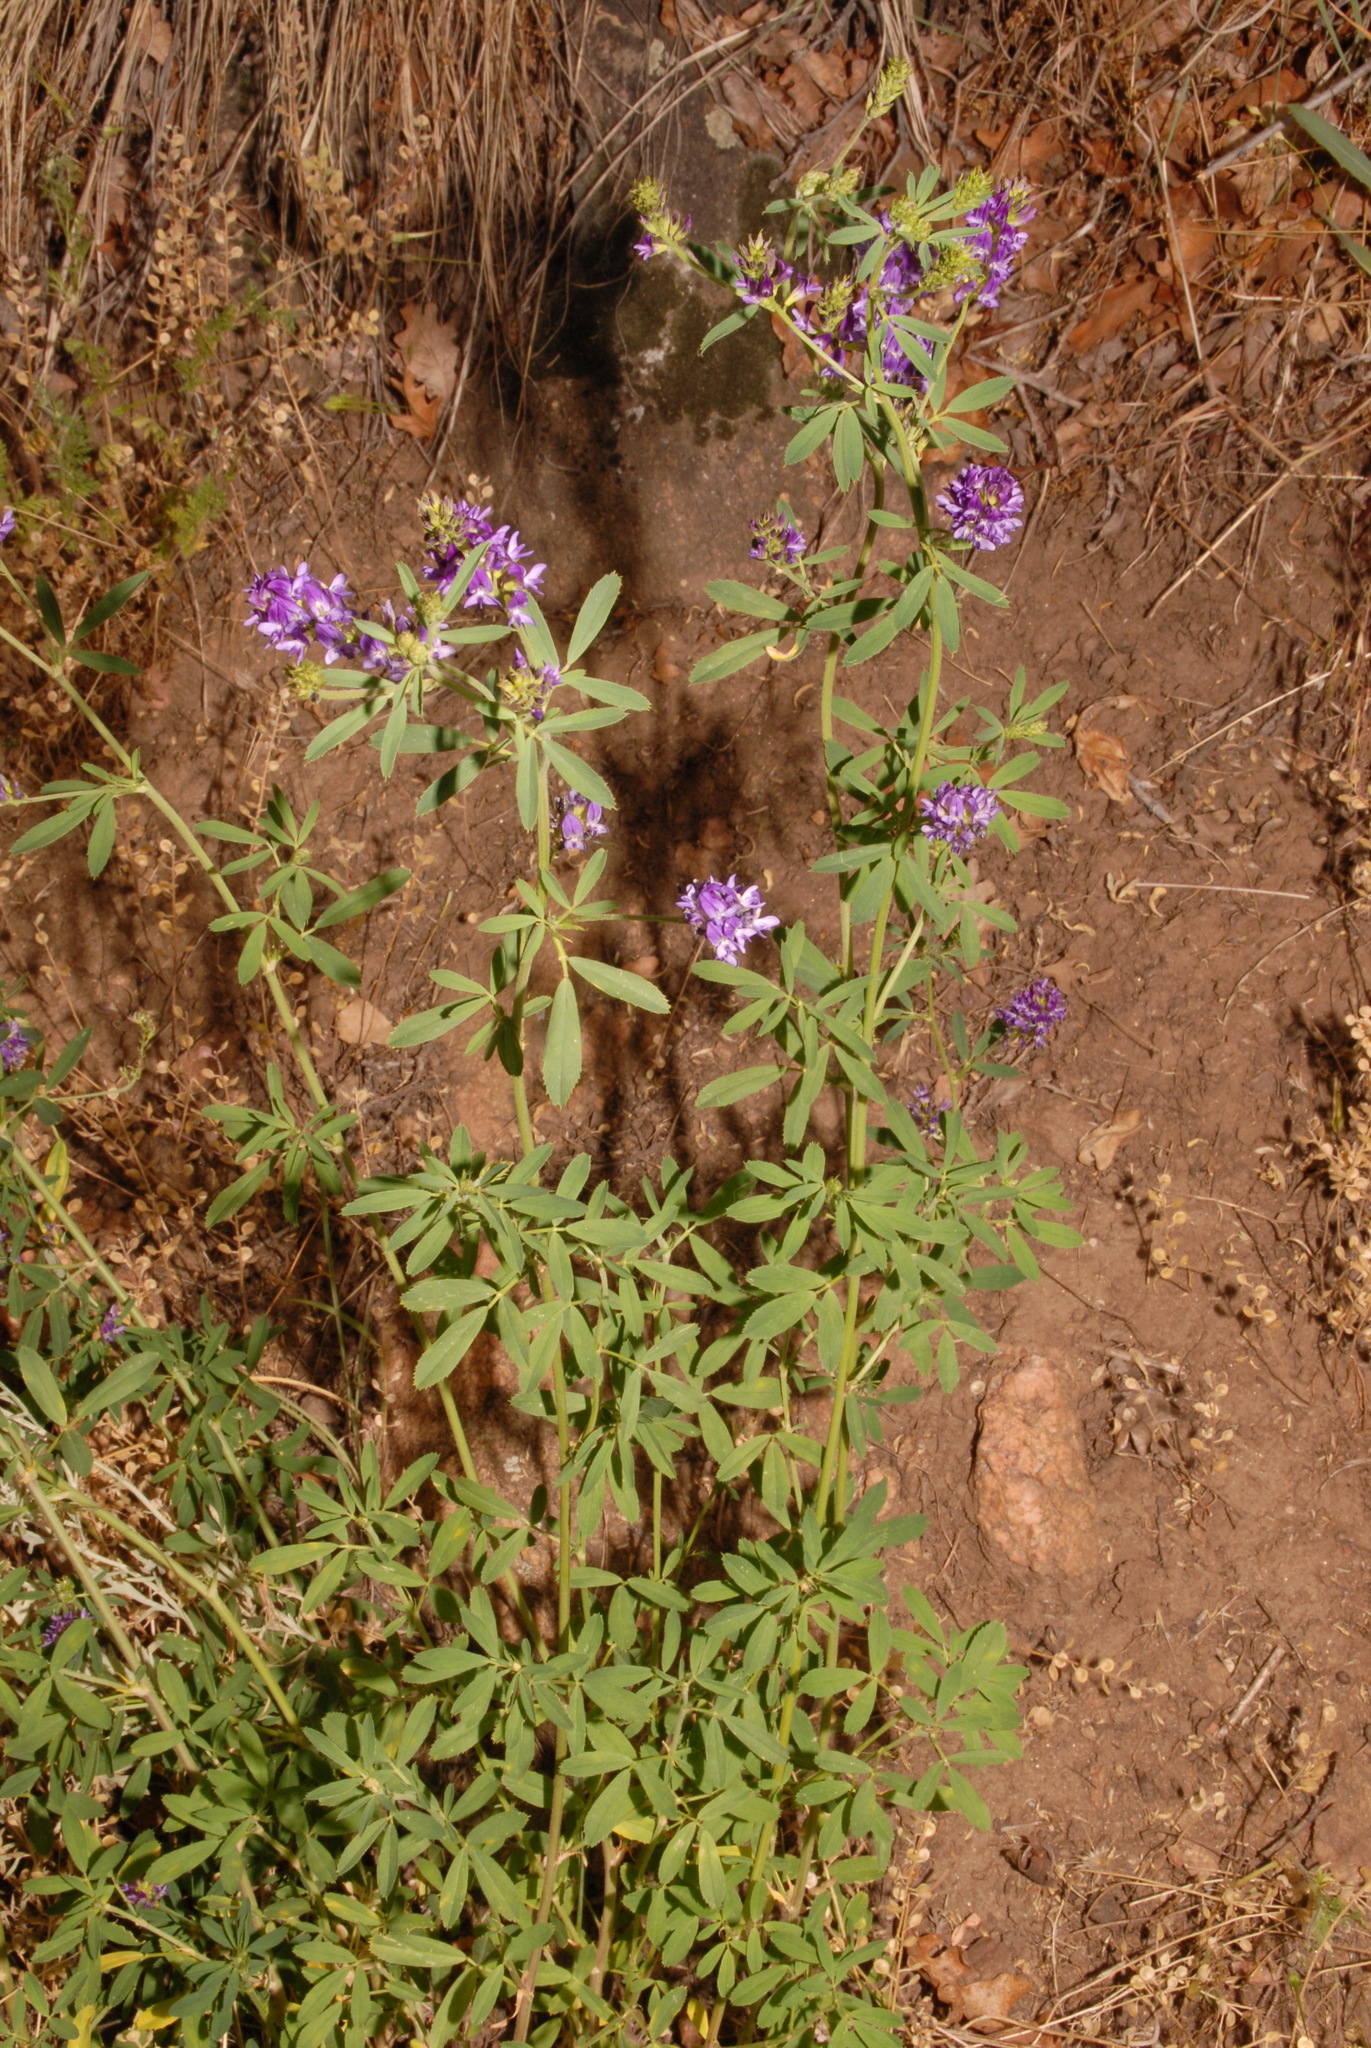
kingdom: Plantae
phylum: Tracheophyta
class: Magnoliopsida
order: Fabales
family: Fabaceae
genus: Medicago
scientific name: Medicago sativa
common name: Alfalfa
